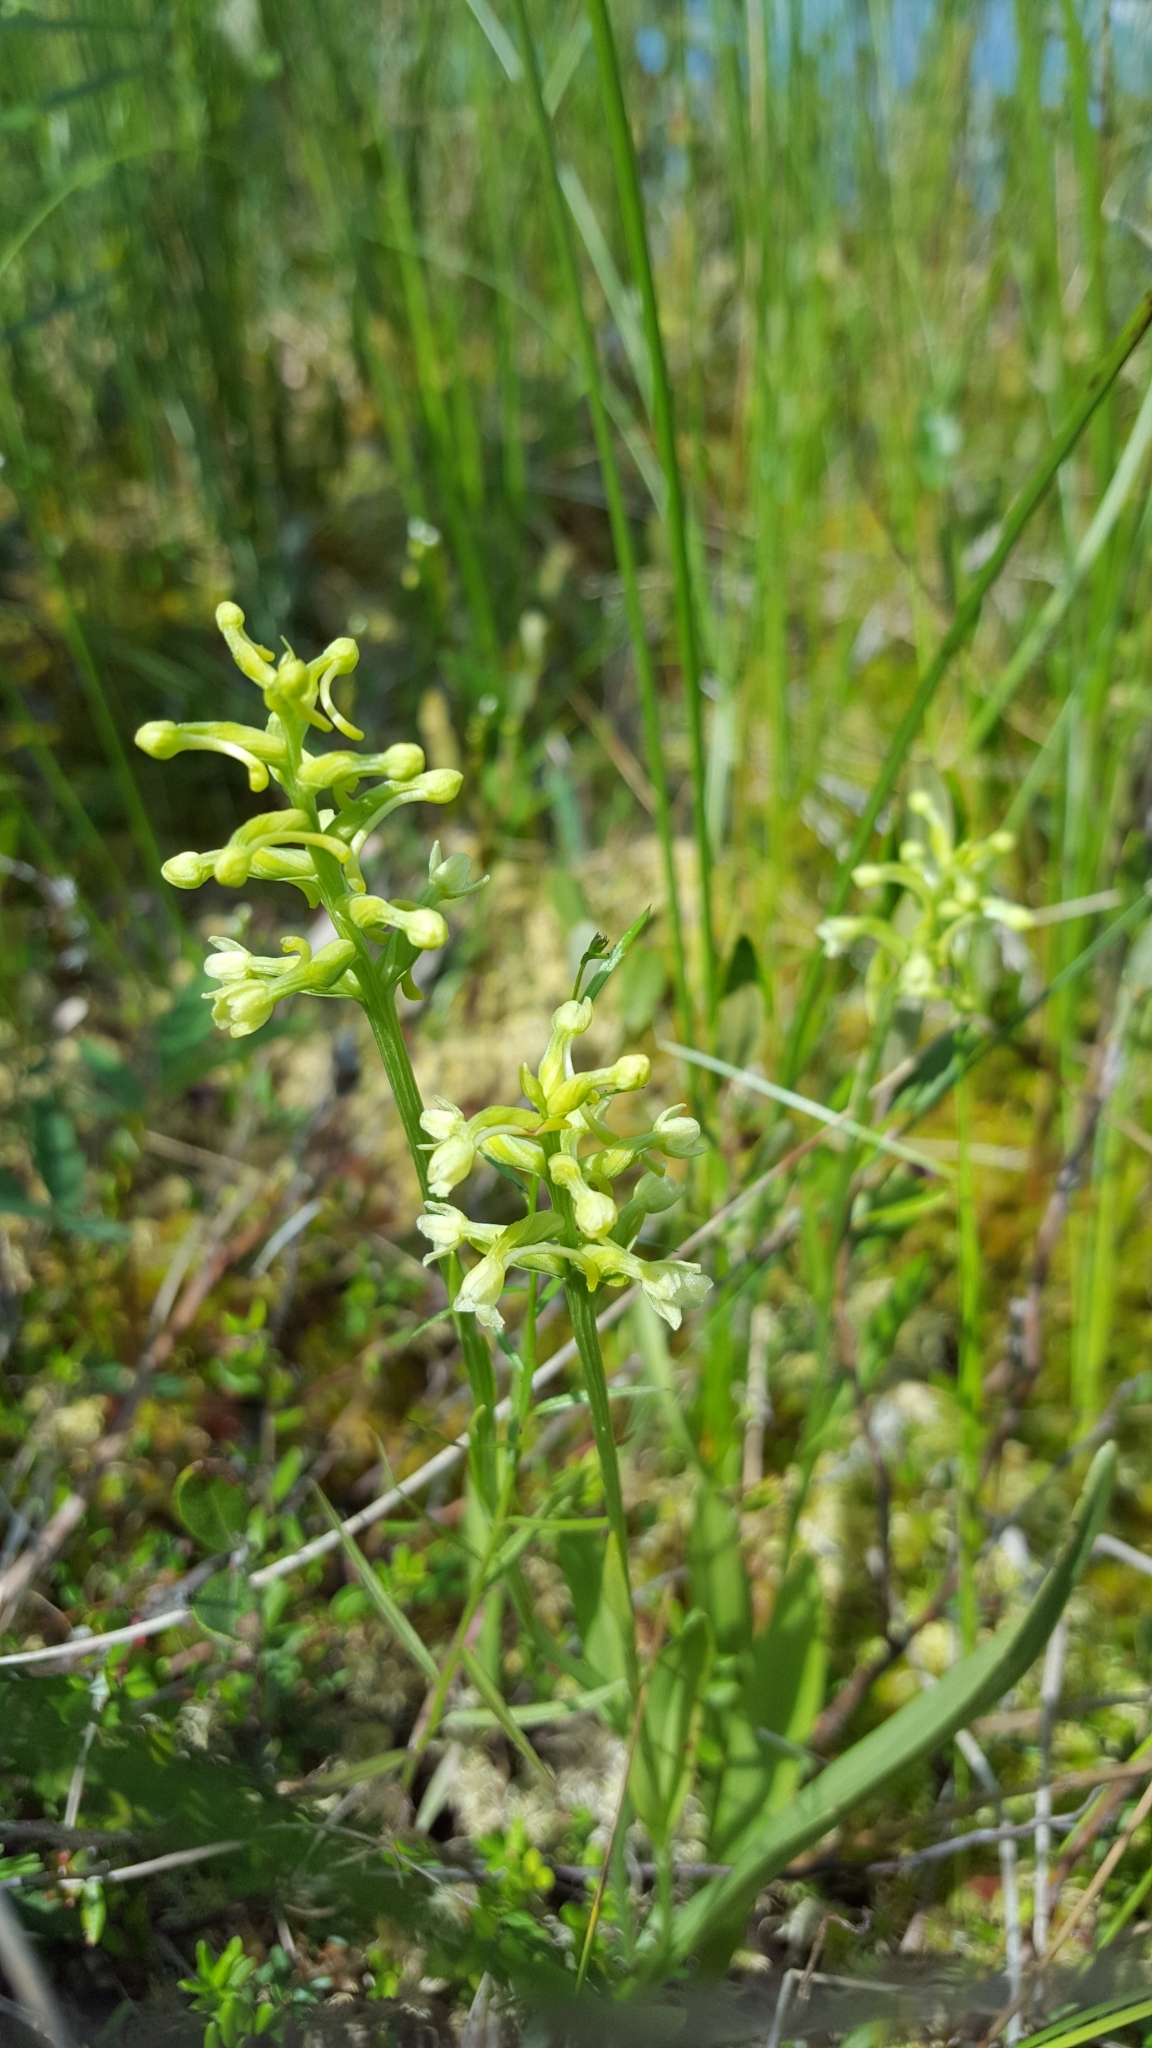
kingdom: Plantae
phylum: Tracheophyta
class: Liliopsida
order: Asparagales
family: Orchidaceae
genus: Platanthera
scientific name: Platanthera clavellata
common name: Club-spur orchid
